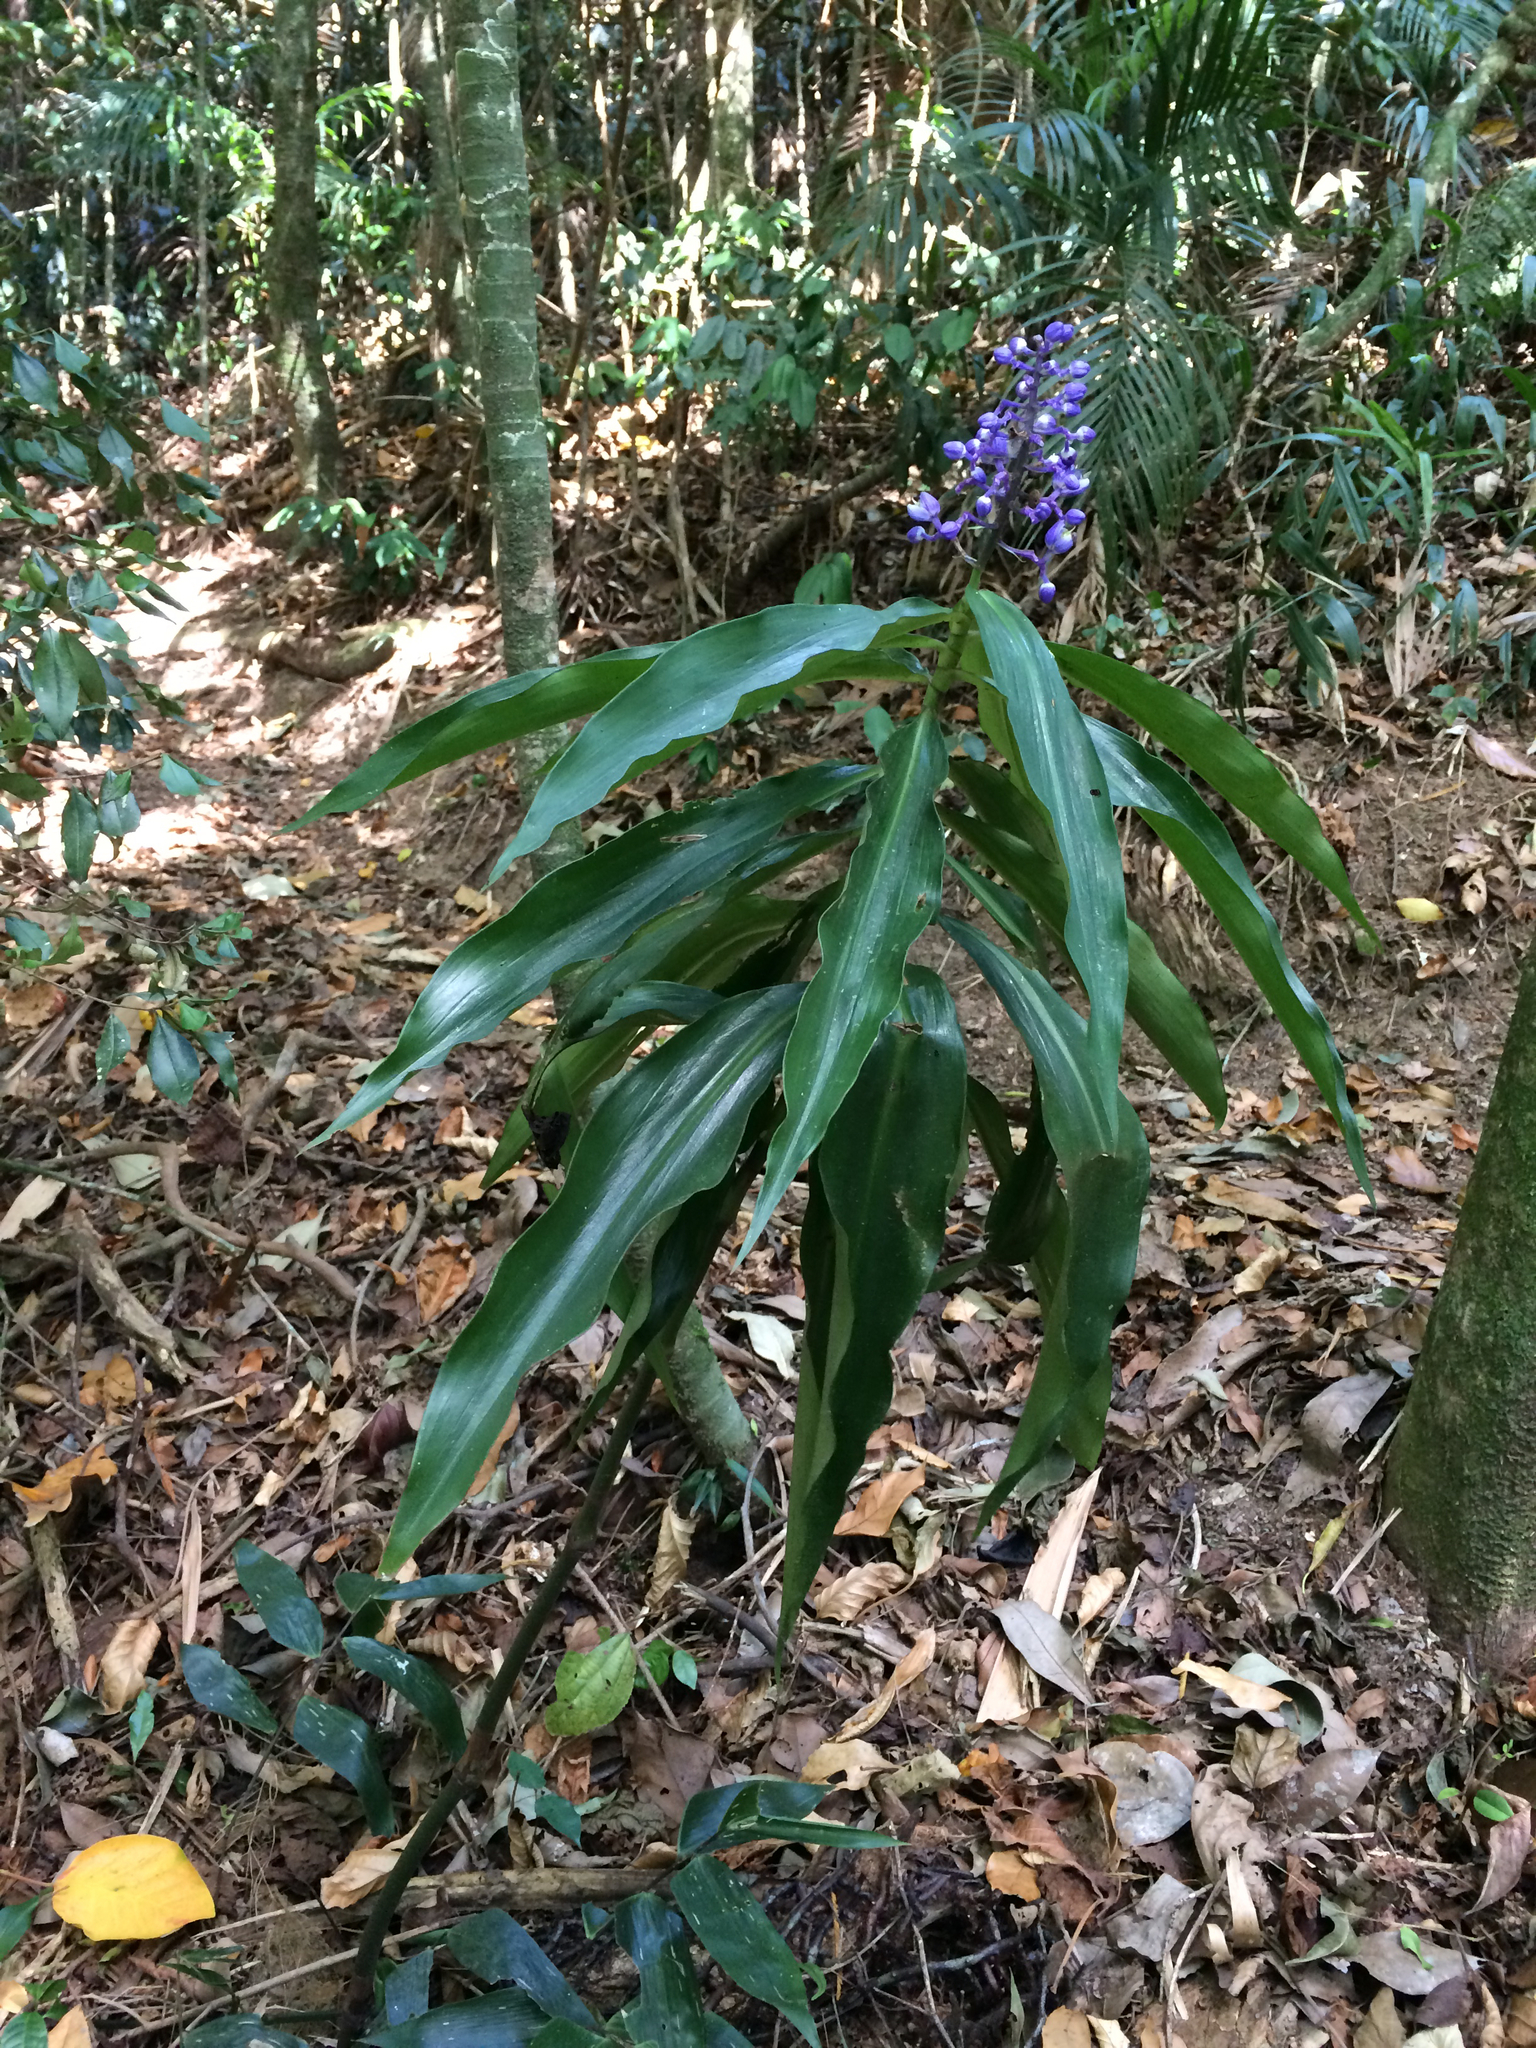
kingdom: Plantae
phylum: Tracheophyta
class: Liliopsida
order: Commelinales
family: Commelinaceae
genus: Dichorisandra
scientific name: Dichorisandra thyrsiflora
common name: Blue-ginger
